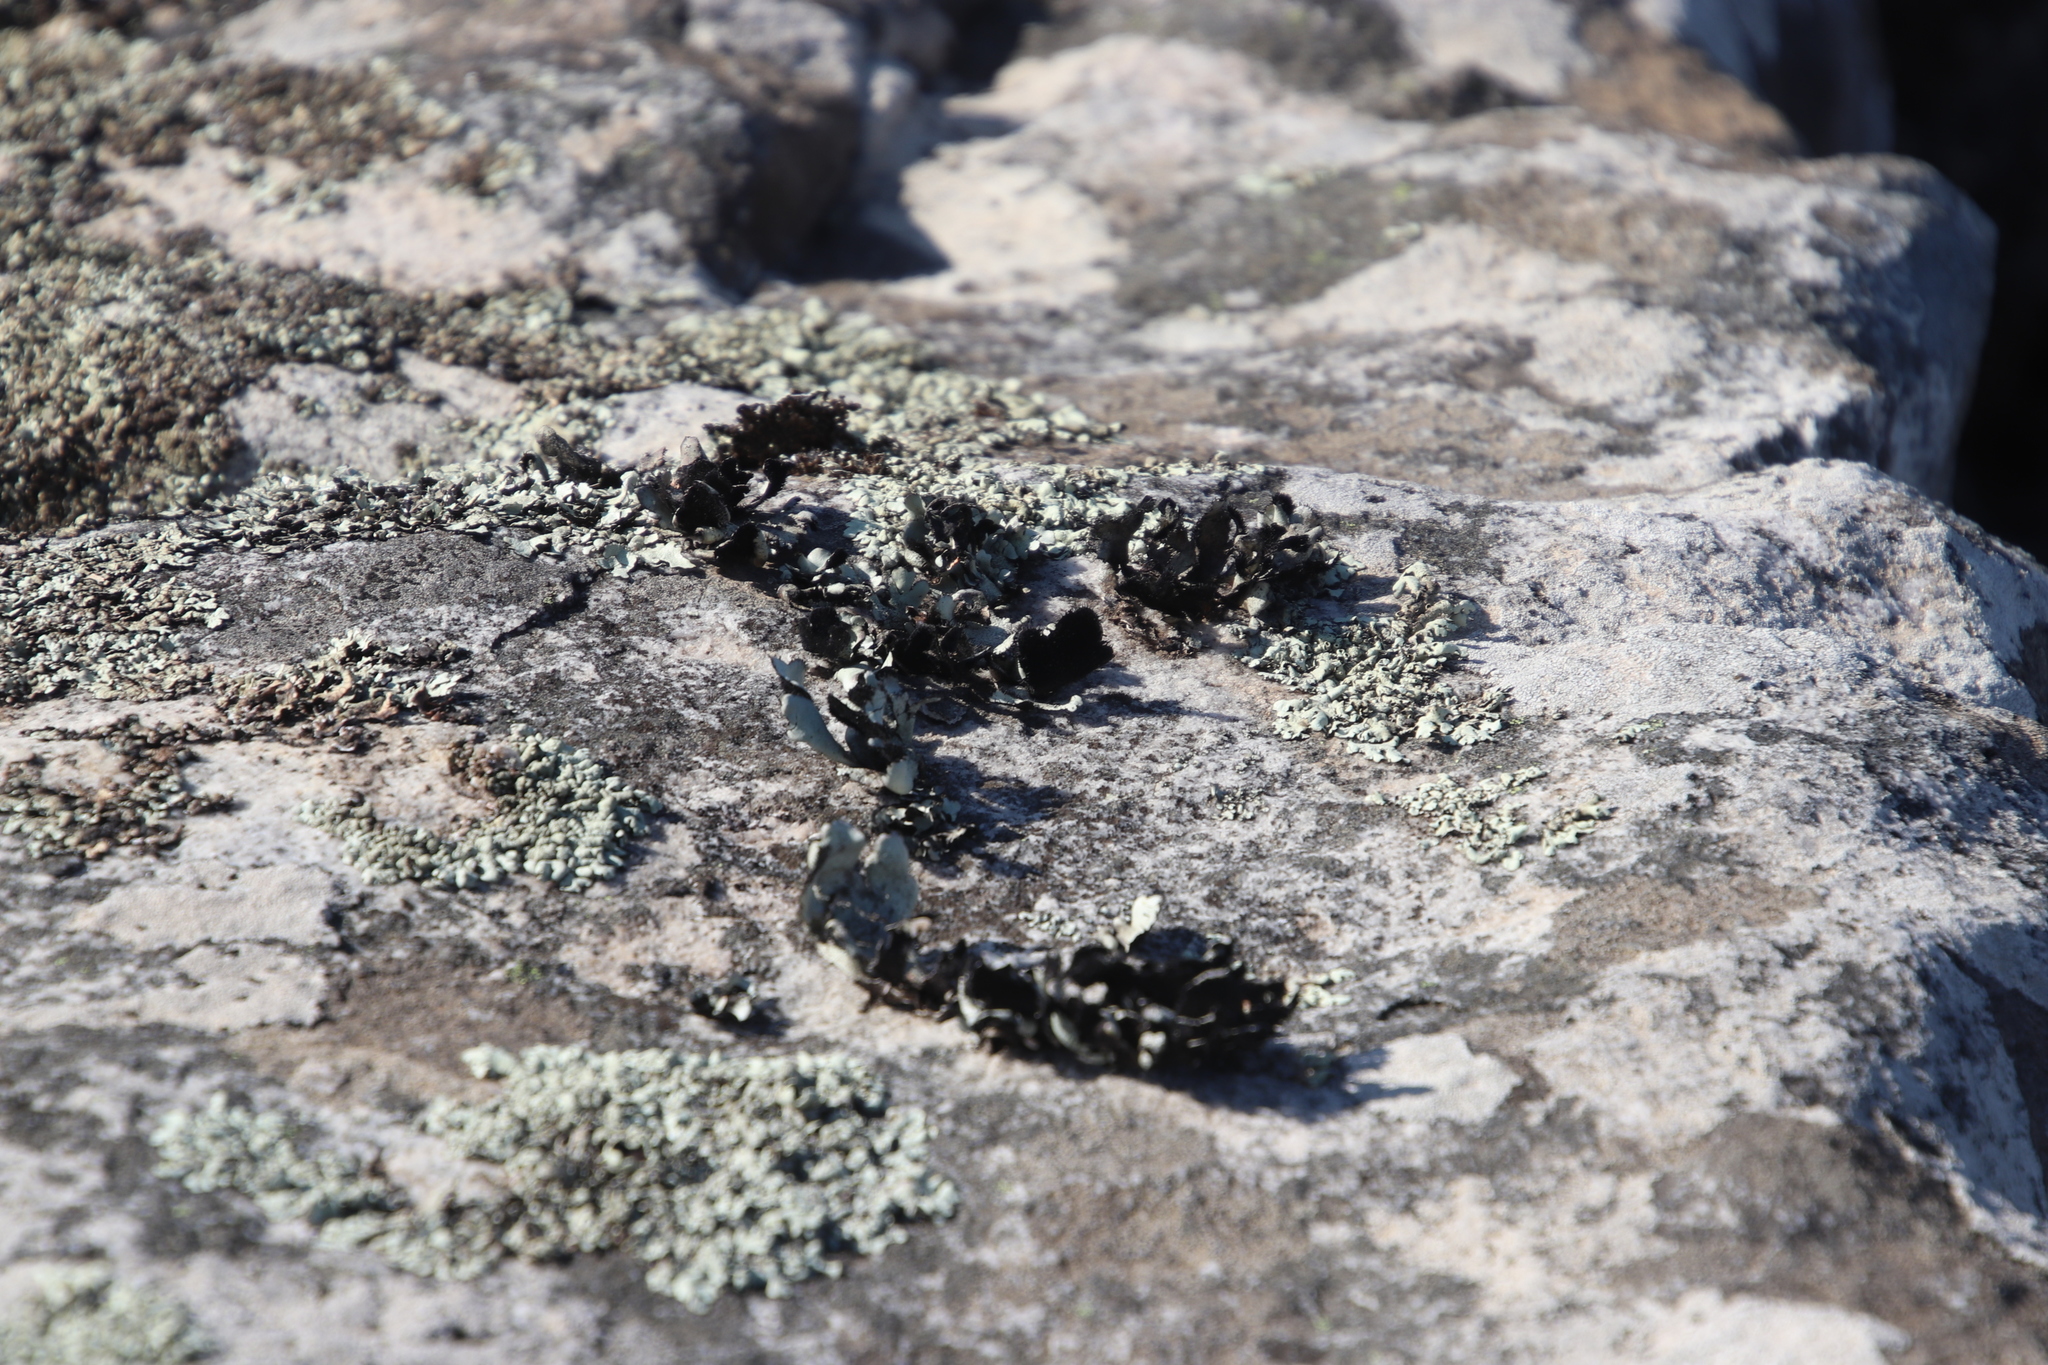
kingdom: Fungi
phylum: Ascomycota
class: Lecanoromycetes
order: Lecanorales
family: Parmeliaceae
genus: Xanthoparmelia
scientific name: Xanthoparmelia hottentotta
